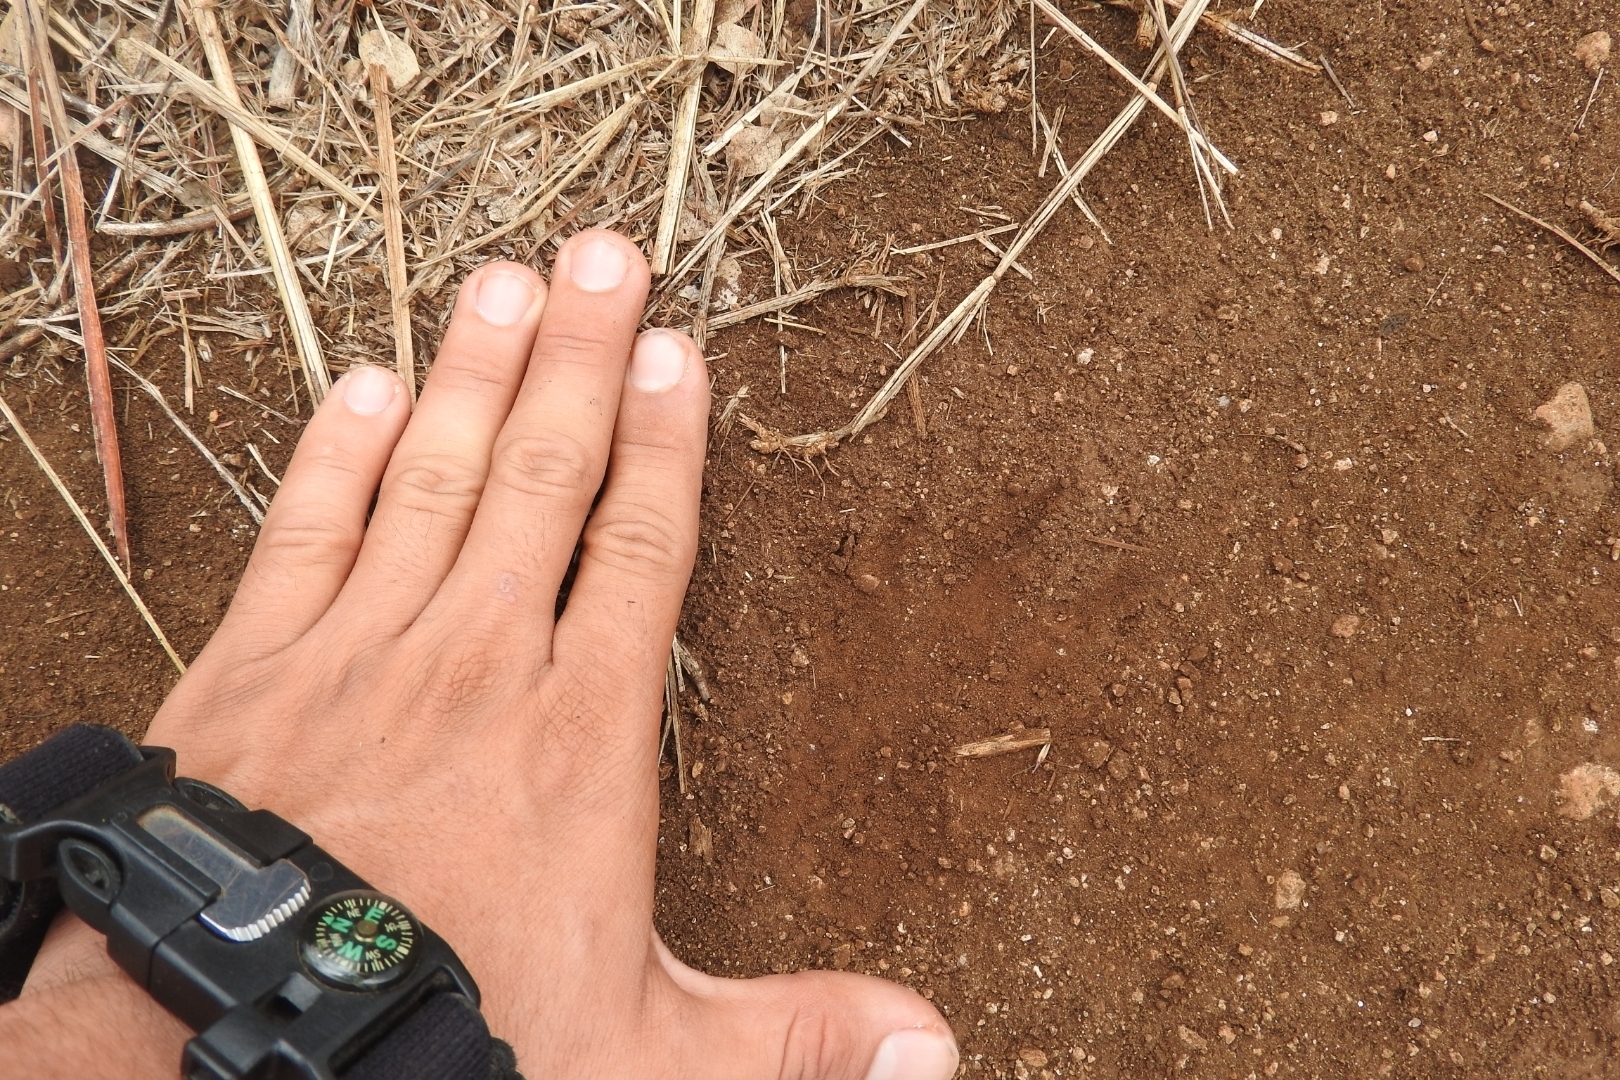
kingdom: Animalia
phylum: Chordata
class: Mammalia
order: Carnivora
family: Canidae
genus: Canis
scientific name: Canis lupus
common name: Gray wolf
